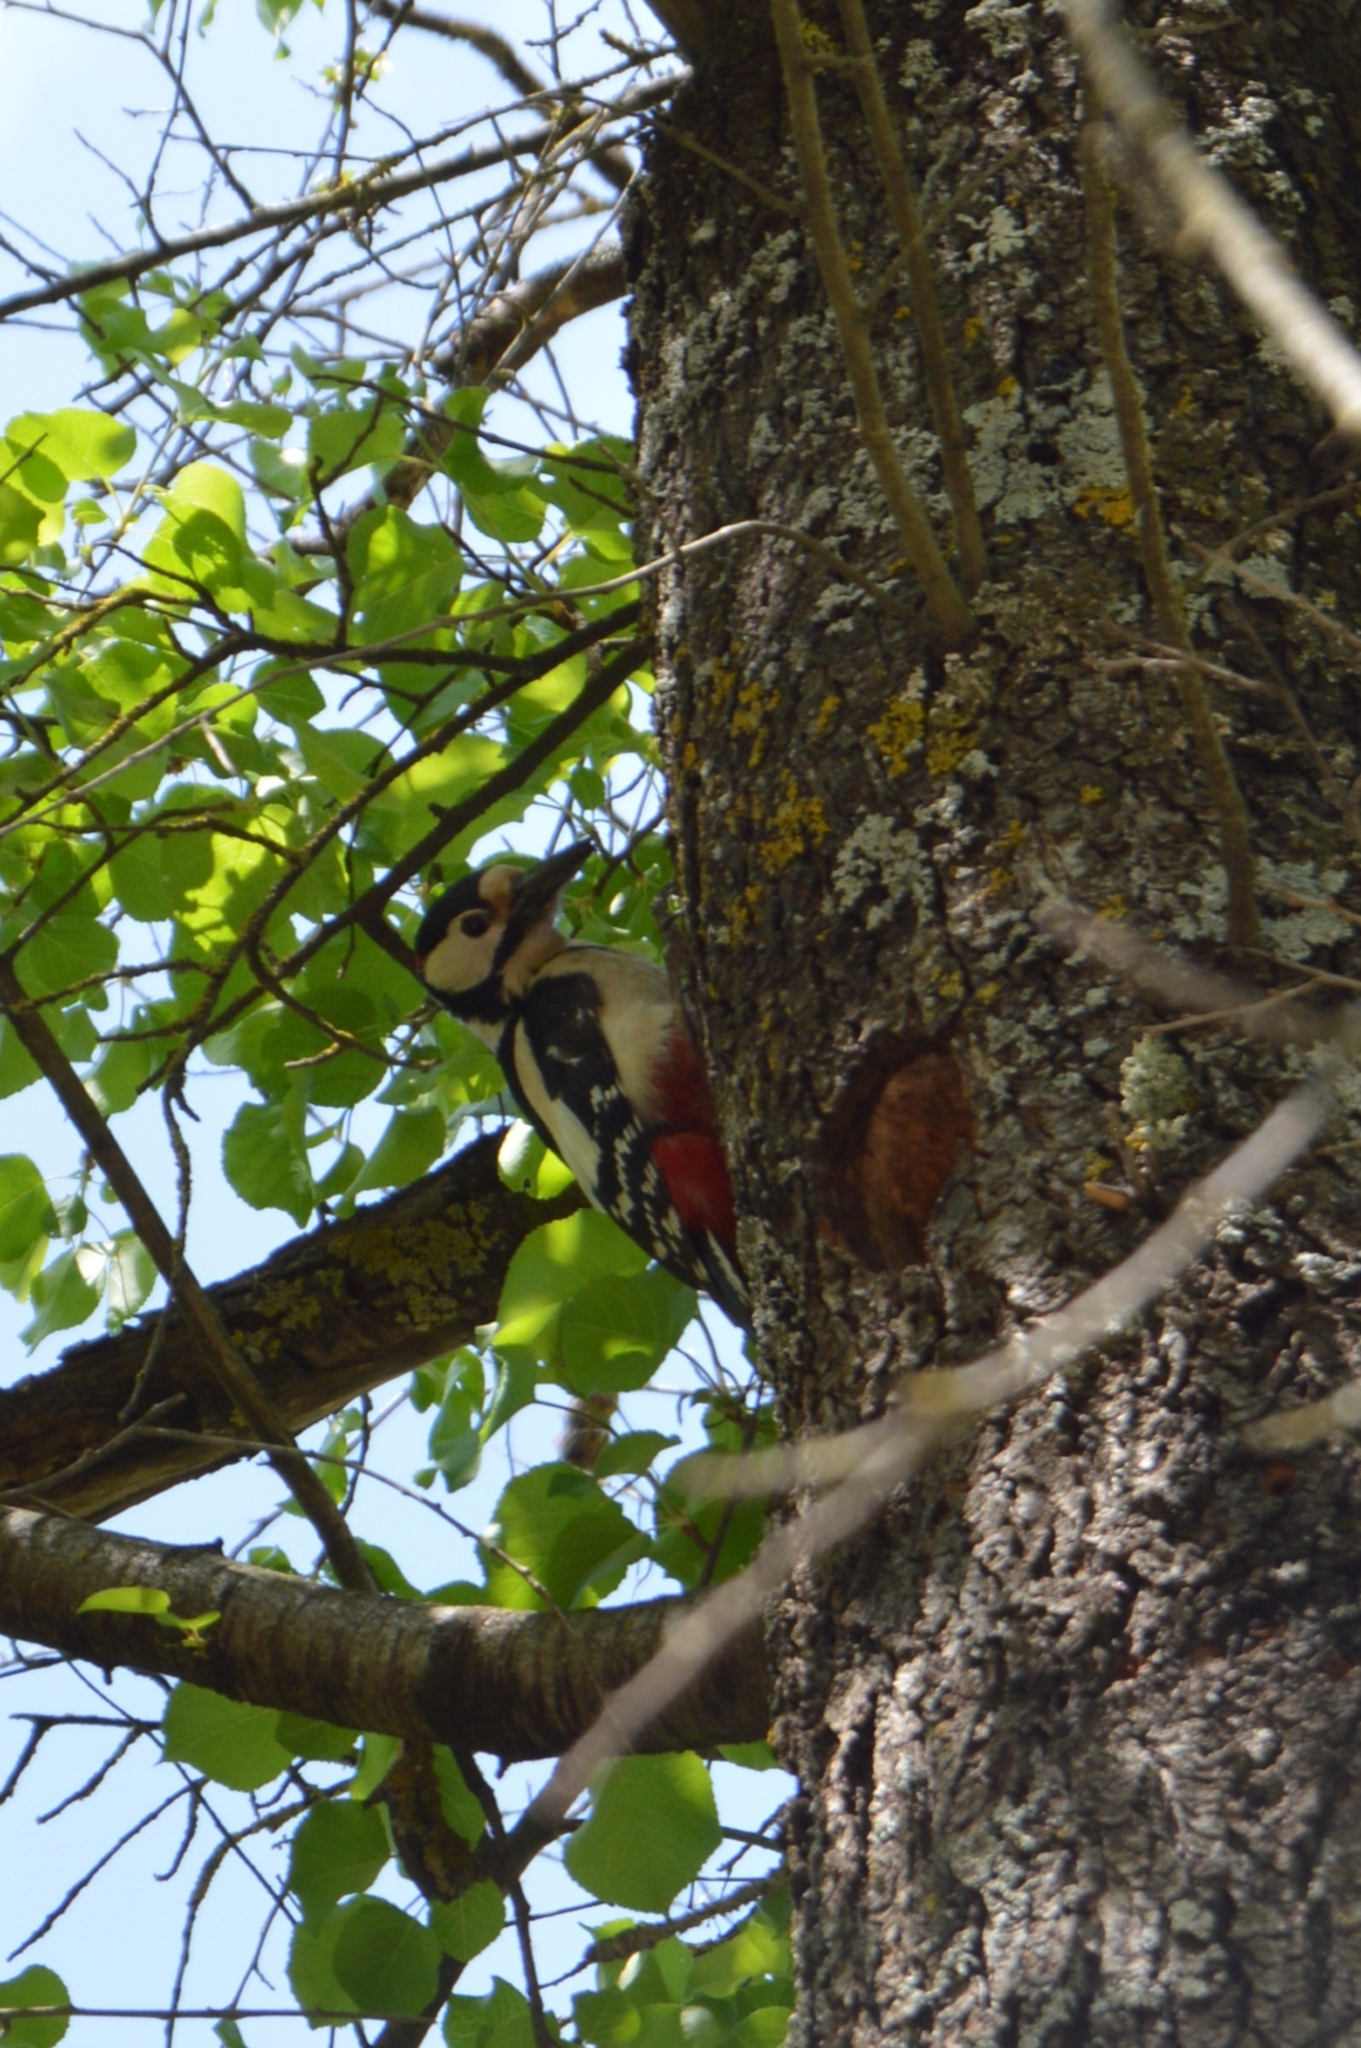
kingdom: Animalia
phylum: Chordata
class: Aves
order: Piciformes
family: Picidae
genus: Dendrocopos
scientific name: Dendrocopos major
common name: Great spotted woodpecker
